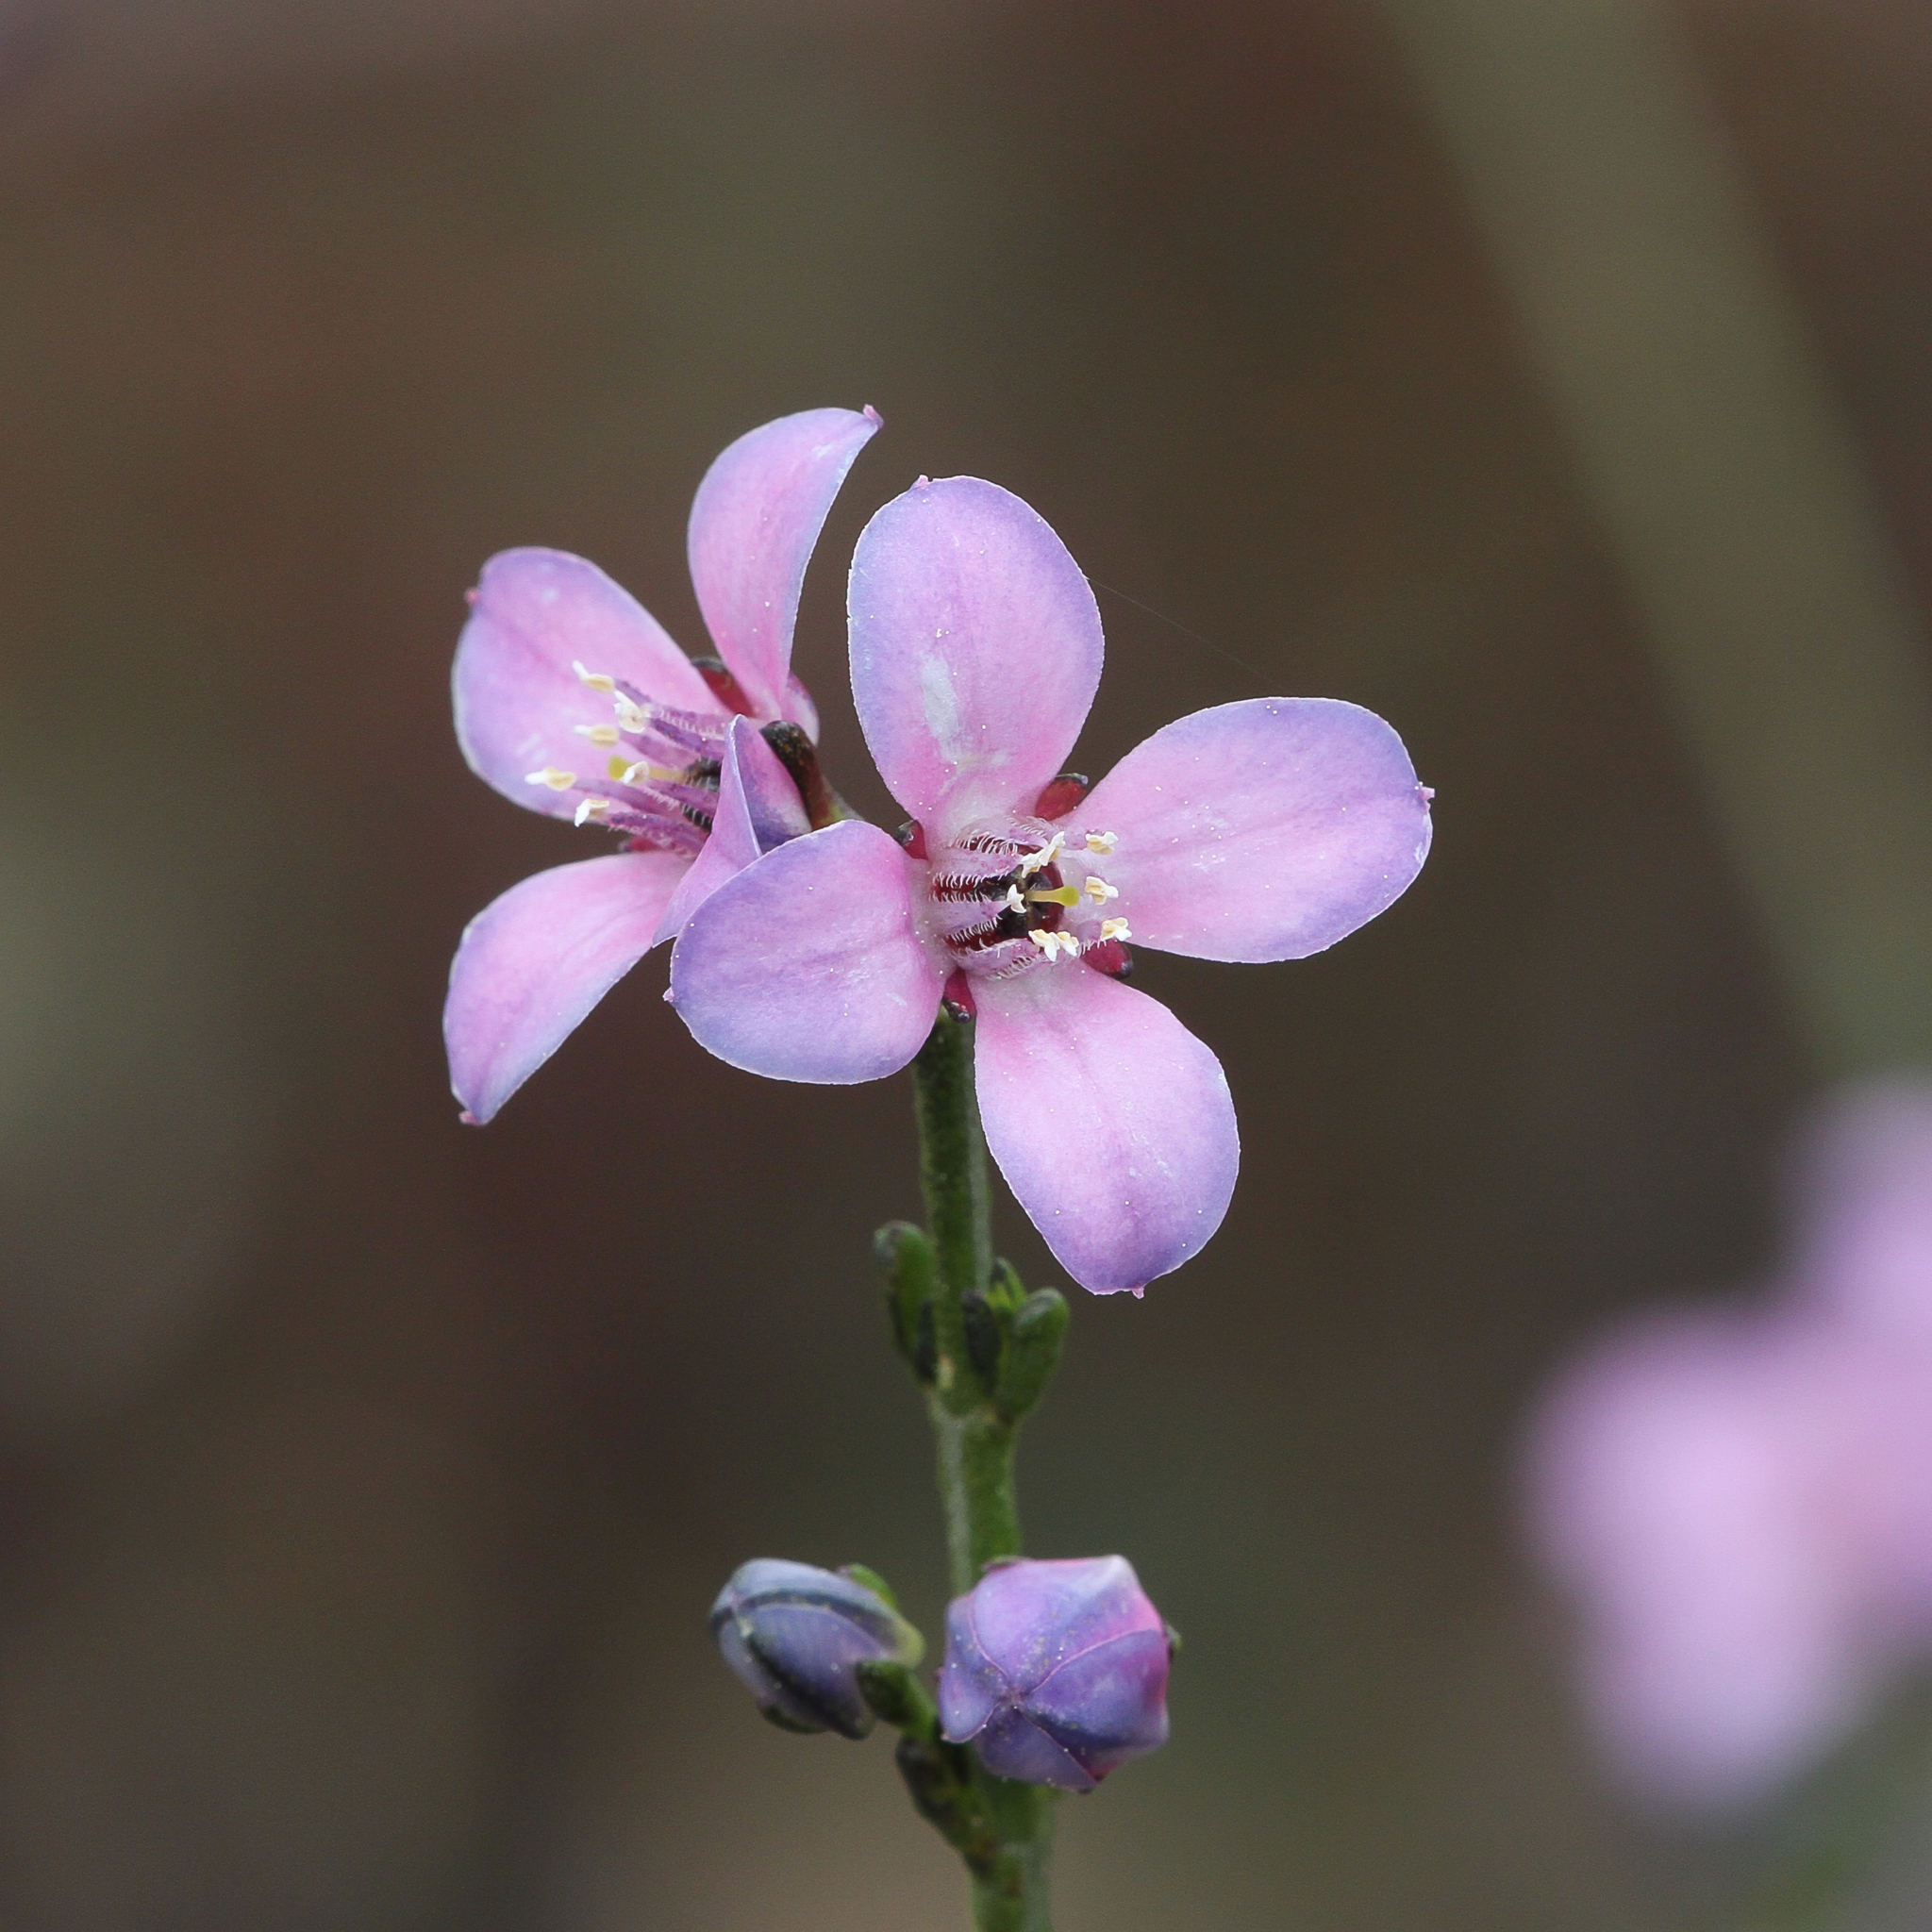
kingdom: Plantae
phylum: Tracheophyta
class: Magnoliopsida
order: Sapindales
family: Rutaceae
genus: Cyanothamnus
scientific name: Cyanothamnus coerulescens
